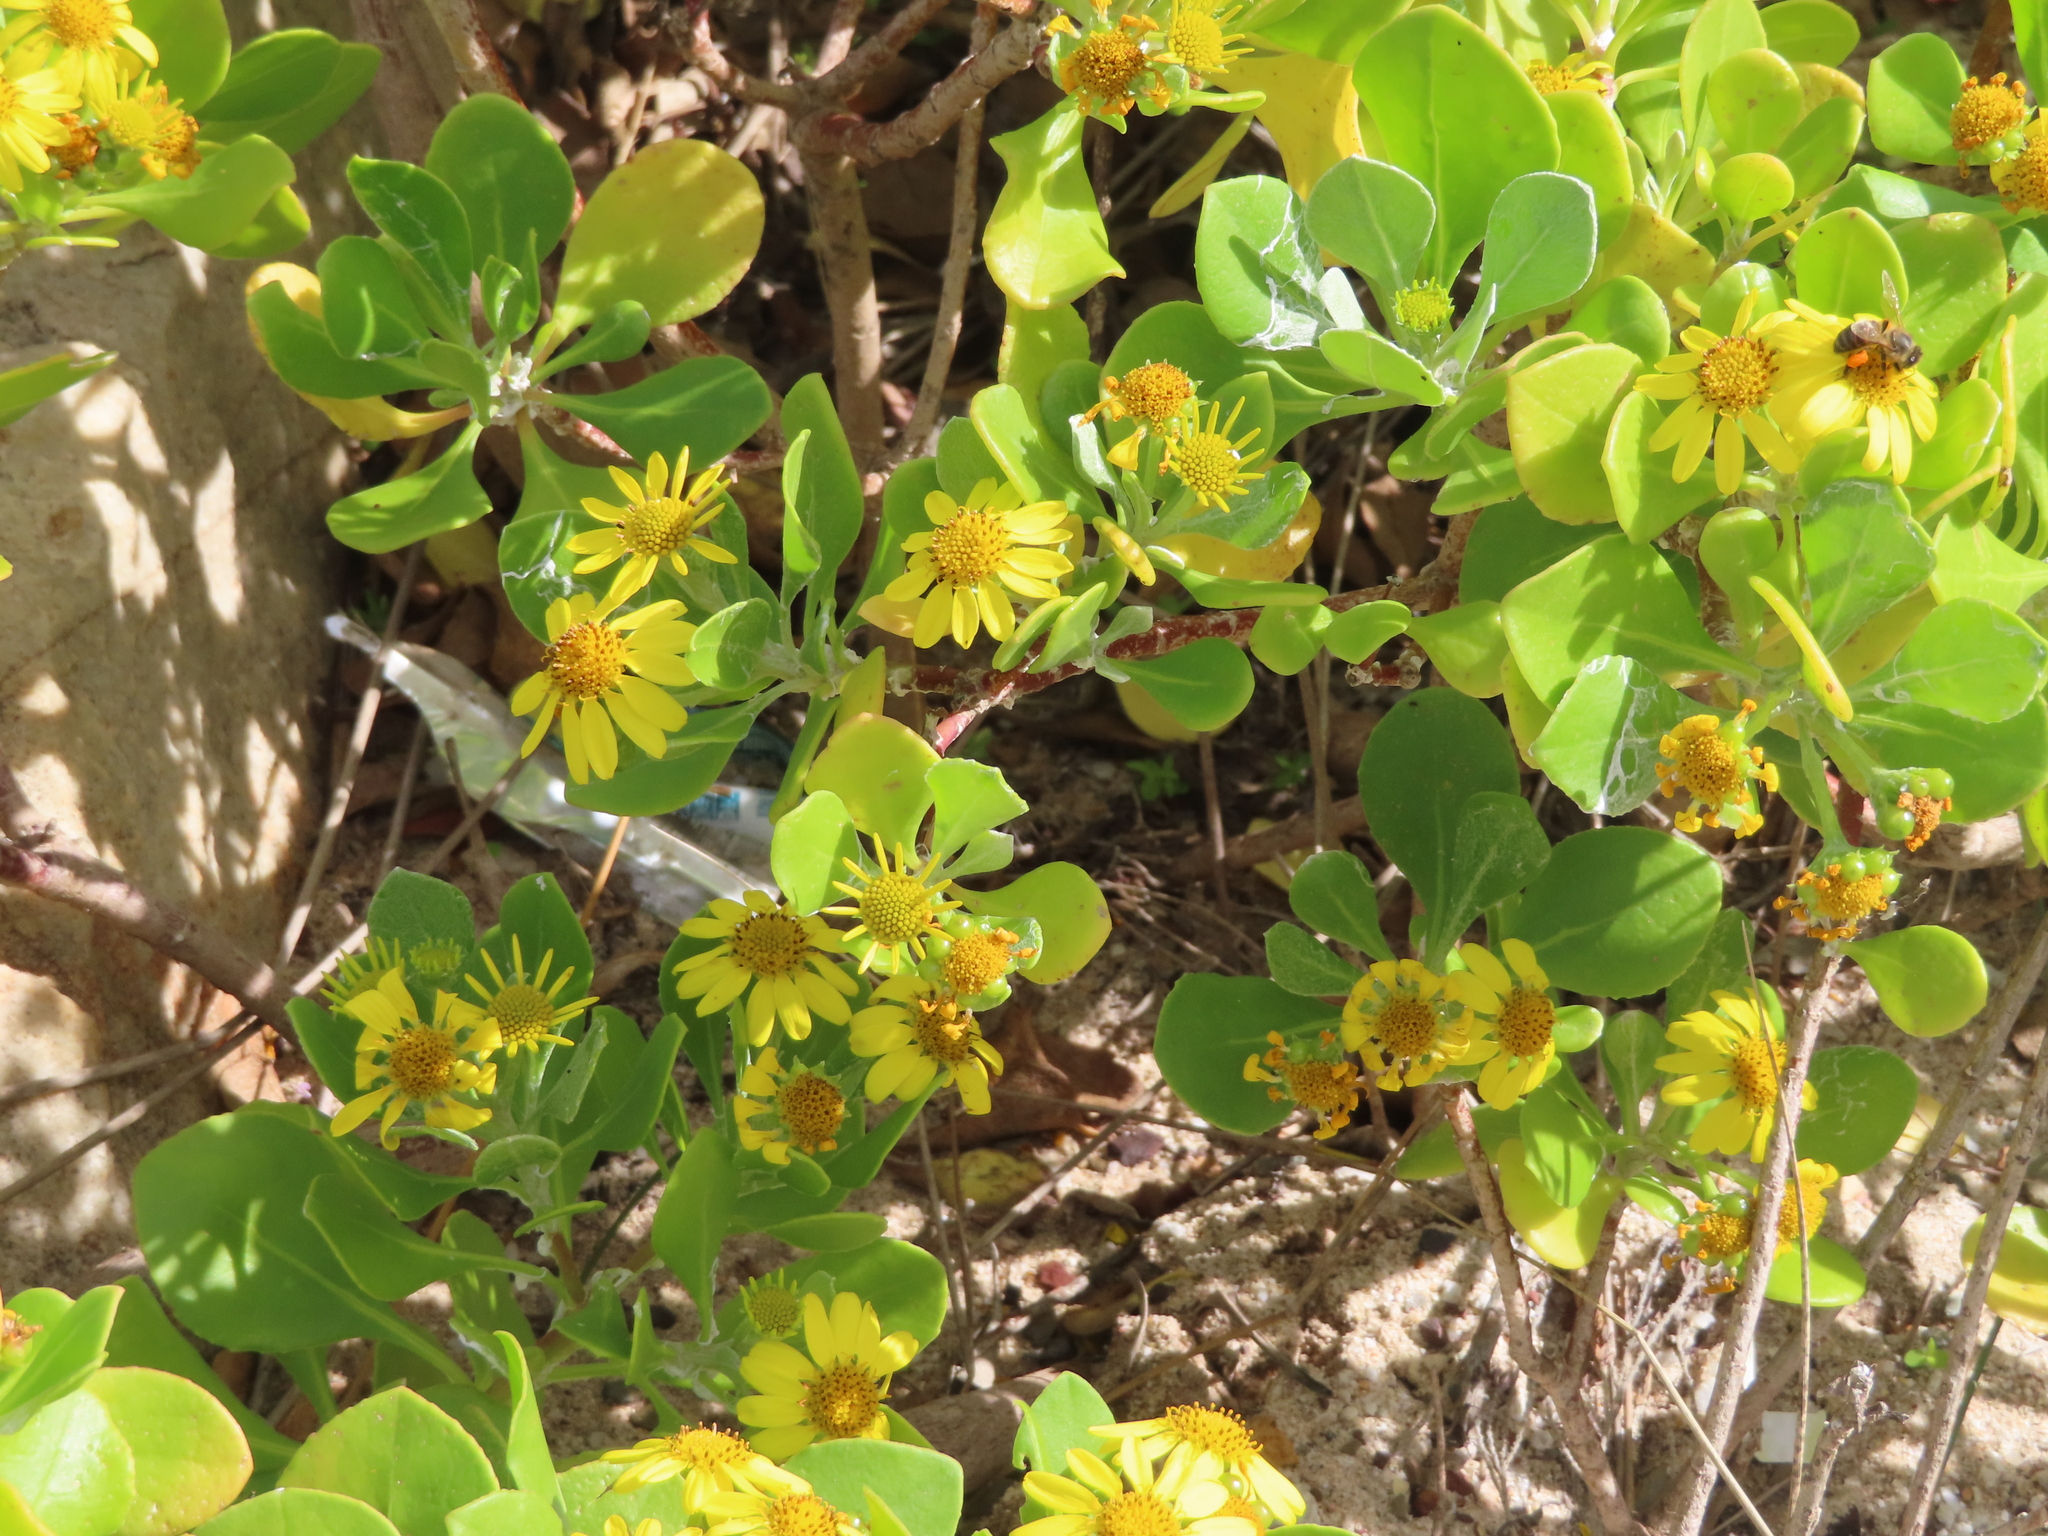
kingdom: Plantae
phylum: Tracheophyta
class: Magnoliopsida
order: Asterales
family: Asteraceae
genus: Osteospermum
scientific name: Osteospermum moniliferum
